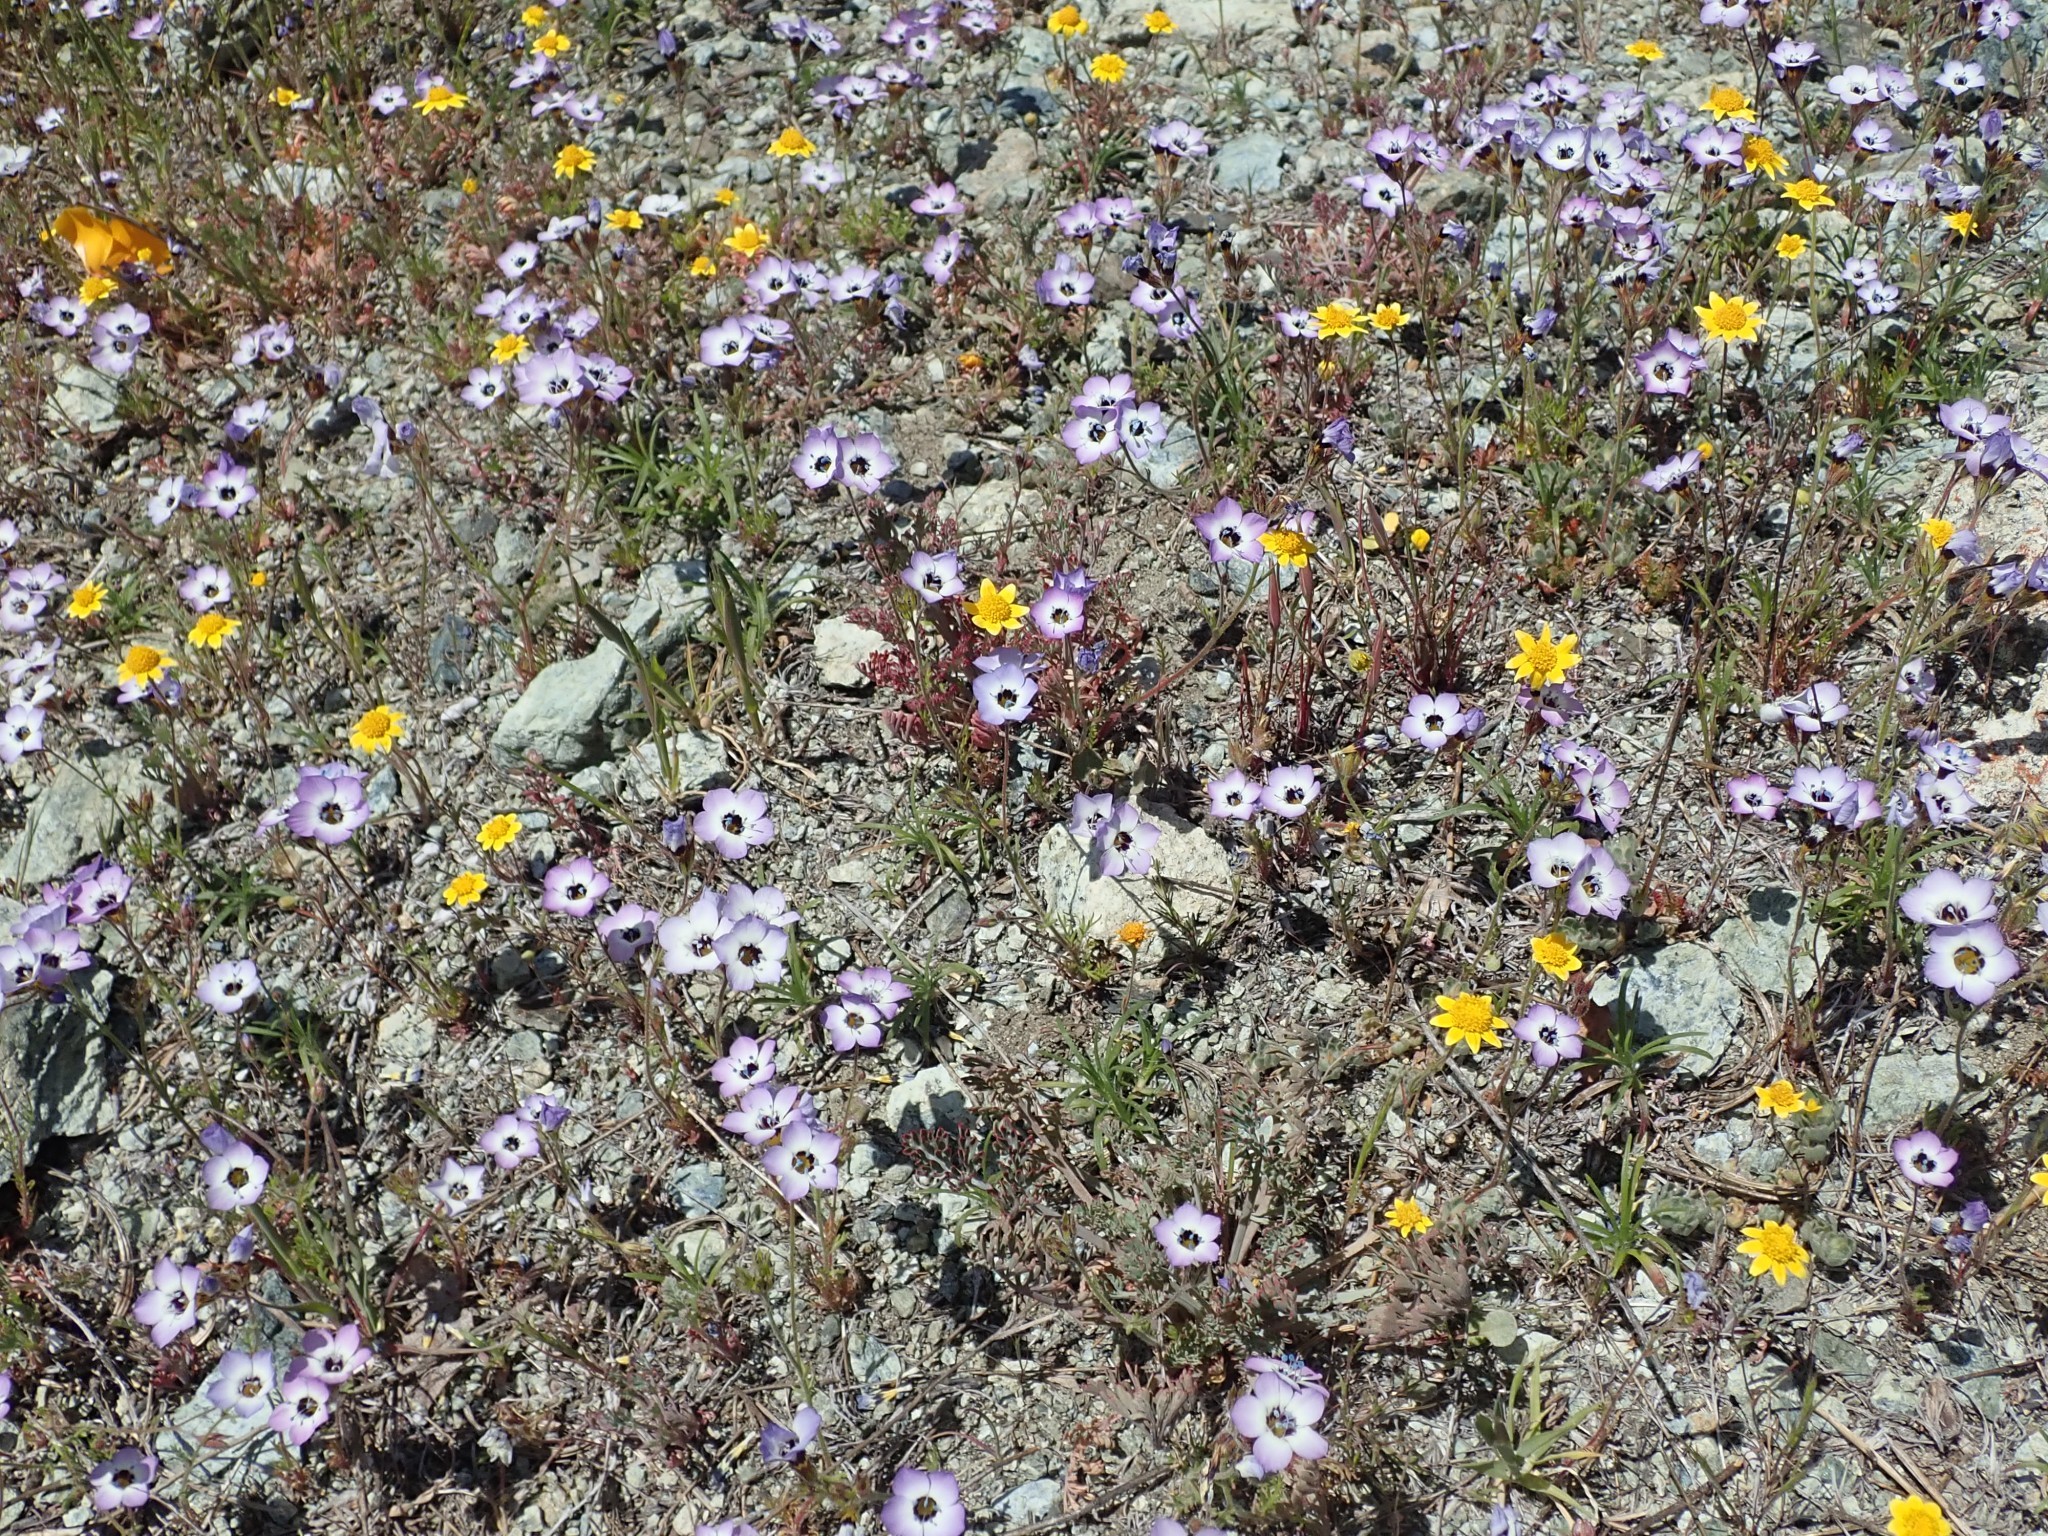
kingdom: Plantae
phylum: Tracheophyta
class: Magnoliopsida
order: Ericales
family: Polemoniaceae
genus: Gilia
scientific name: Gilia tricolor
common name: Bird's-eyes
